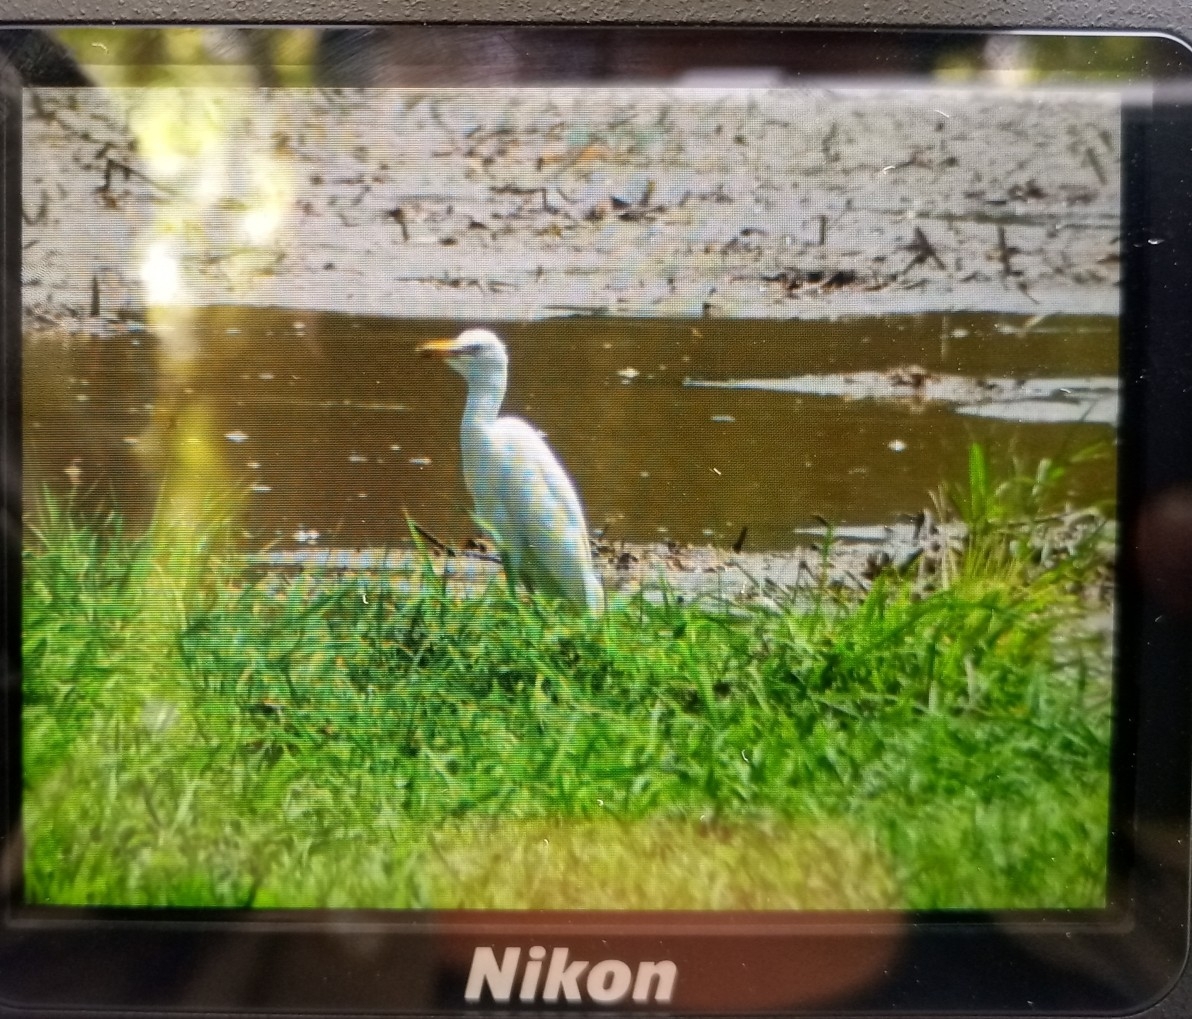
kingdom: Animalia
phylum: Chordata
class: Aves
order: Pelecaniformes
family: Ardeidae
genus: Bubulcus
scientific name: Bubulcus ibis
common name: Cattle egret
